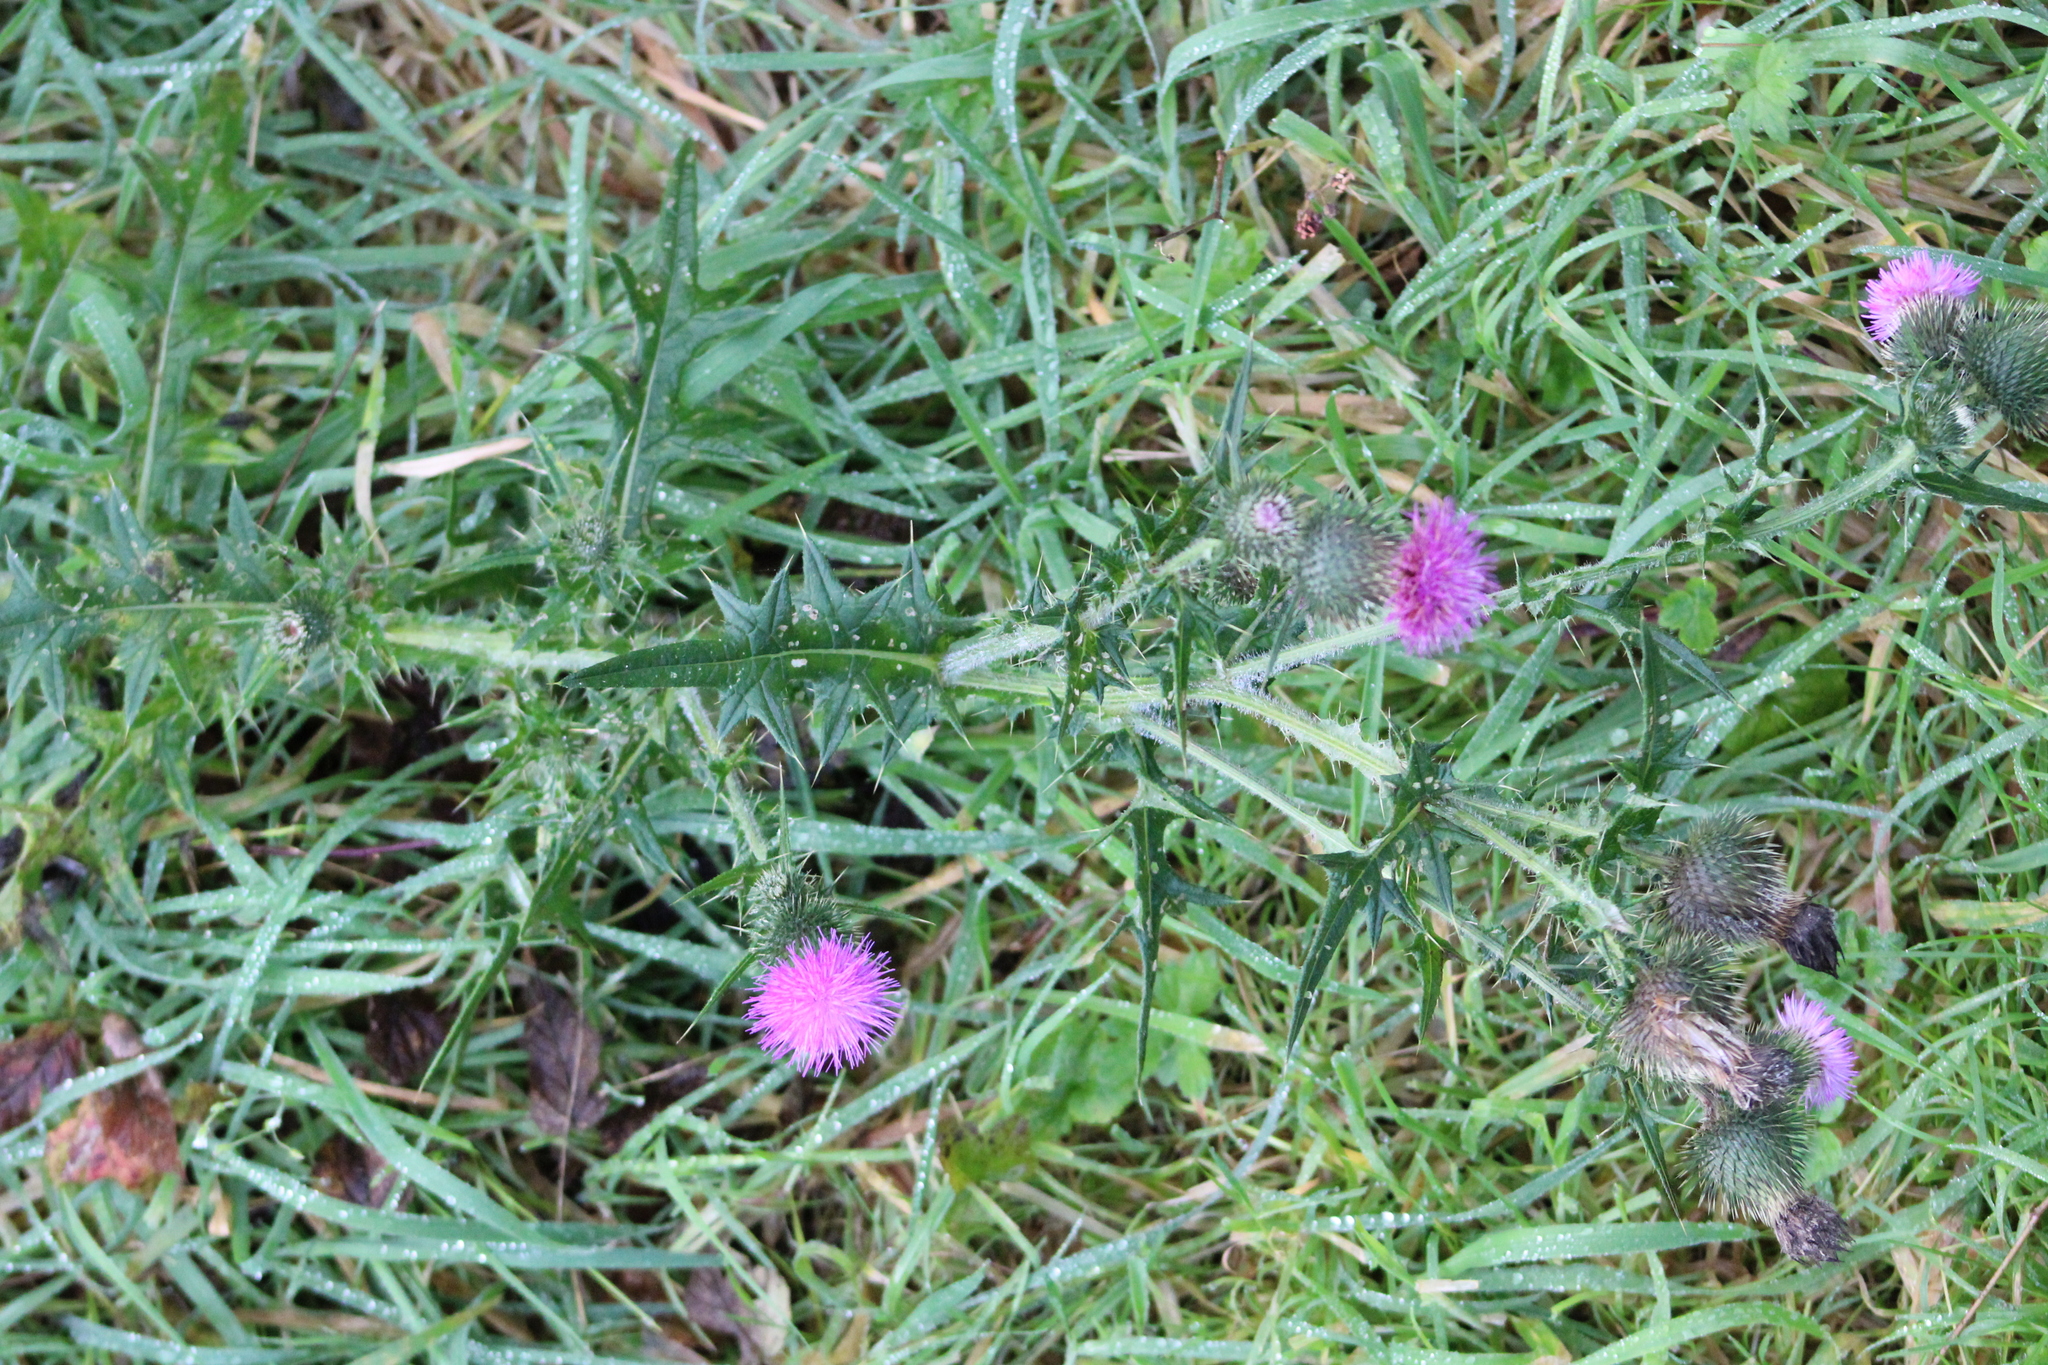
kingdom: Plantae
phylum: Tracheophyta
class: Magnoliopsida
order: Asterales
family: Asteraceae
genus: Cirsium
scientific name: Cirsium vulgare
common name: Bull thistle
